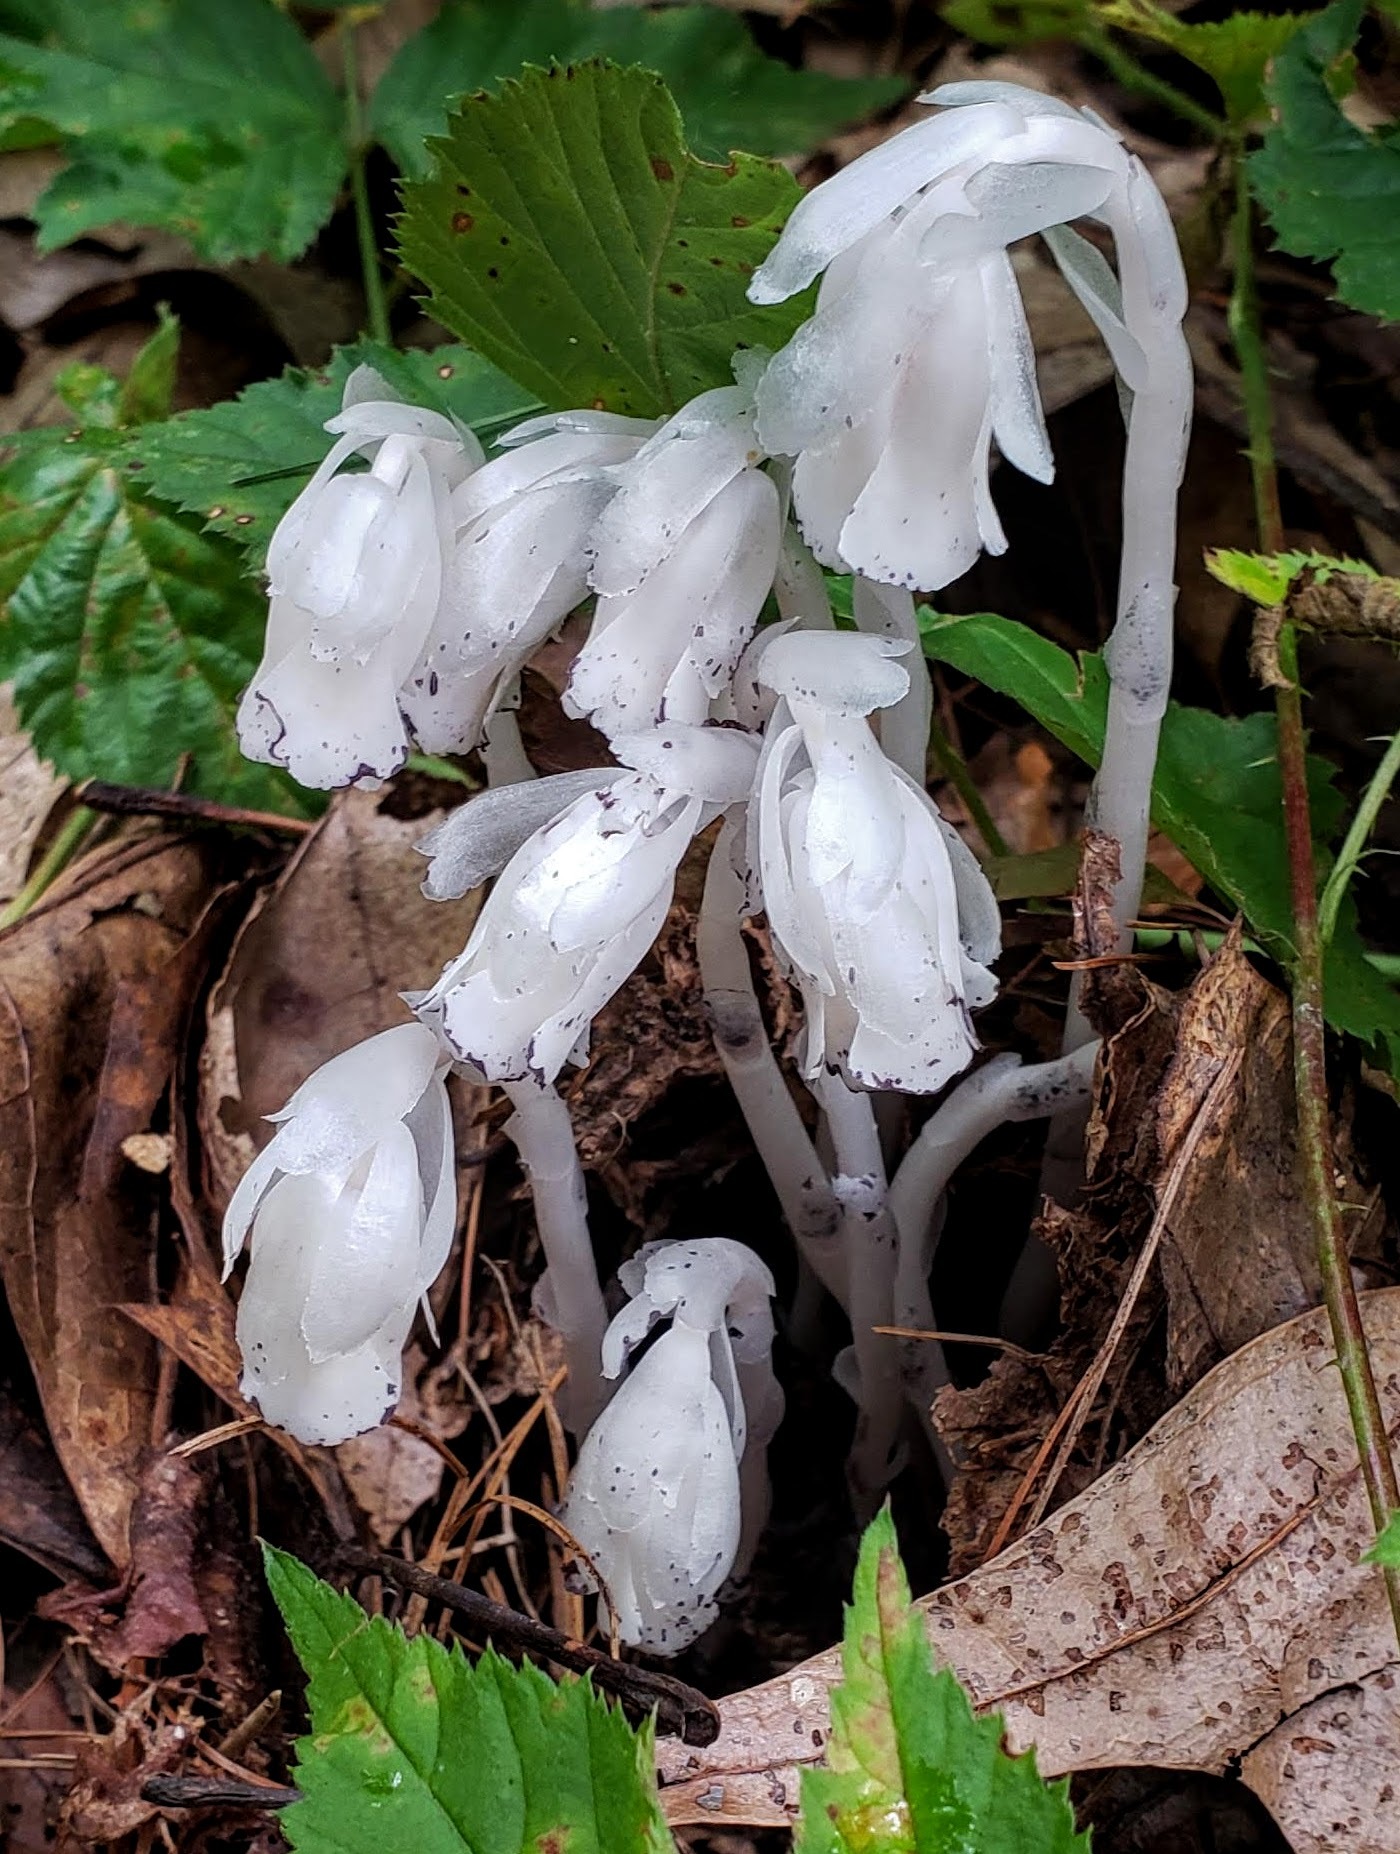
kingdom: Plantae
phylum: Tracheophyta
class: Magnoliopsida
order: Ericales
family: Ericaceae
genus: Monotropa
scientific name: Monotropa uniflora
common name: Convulsion root
